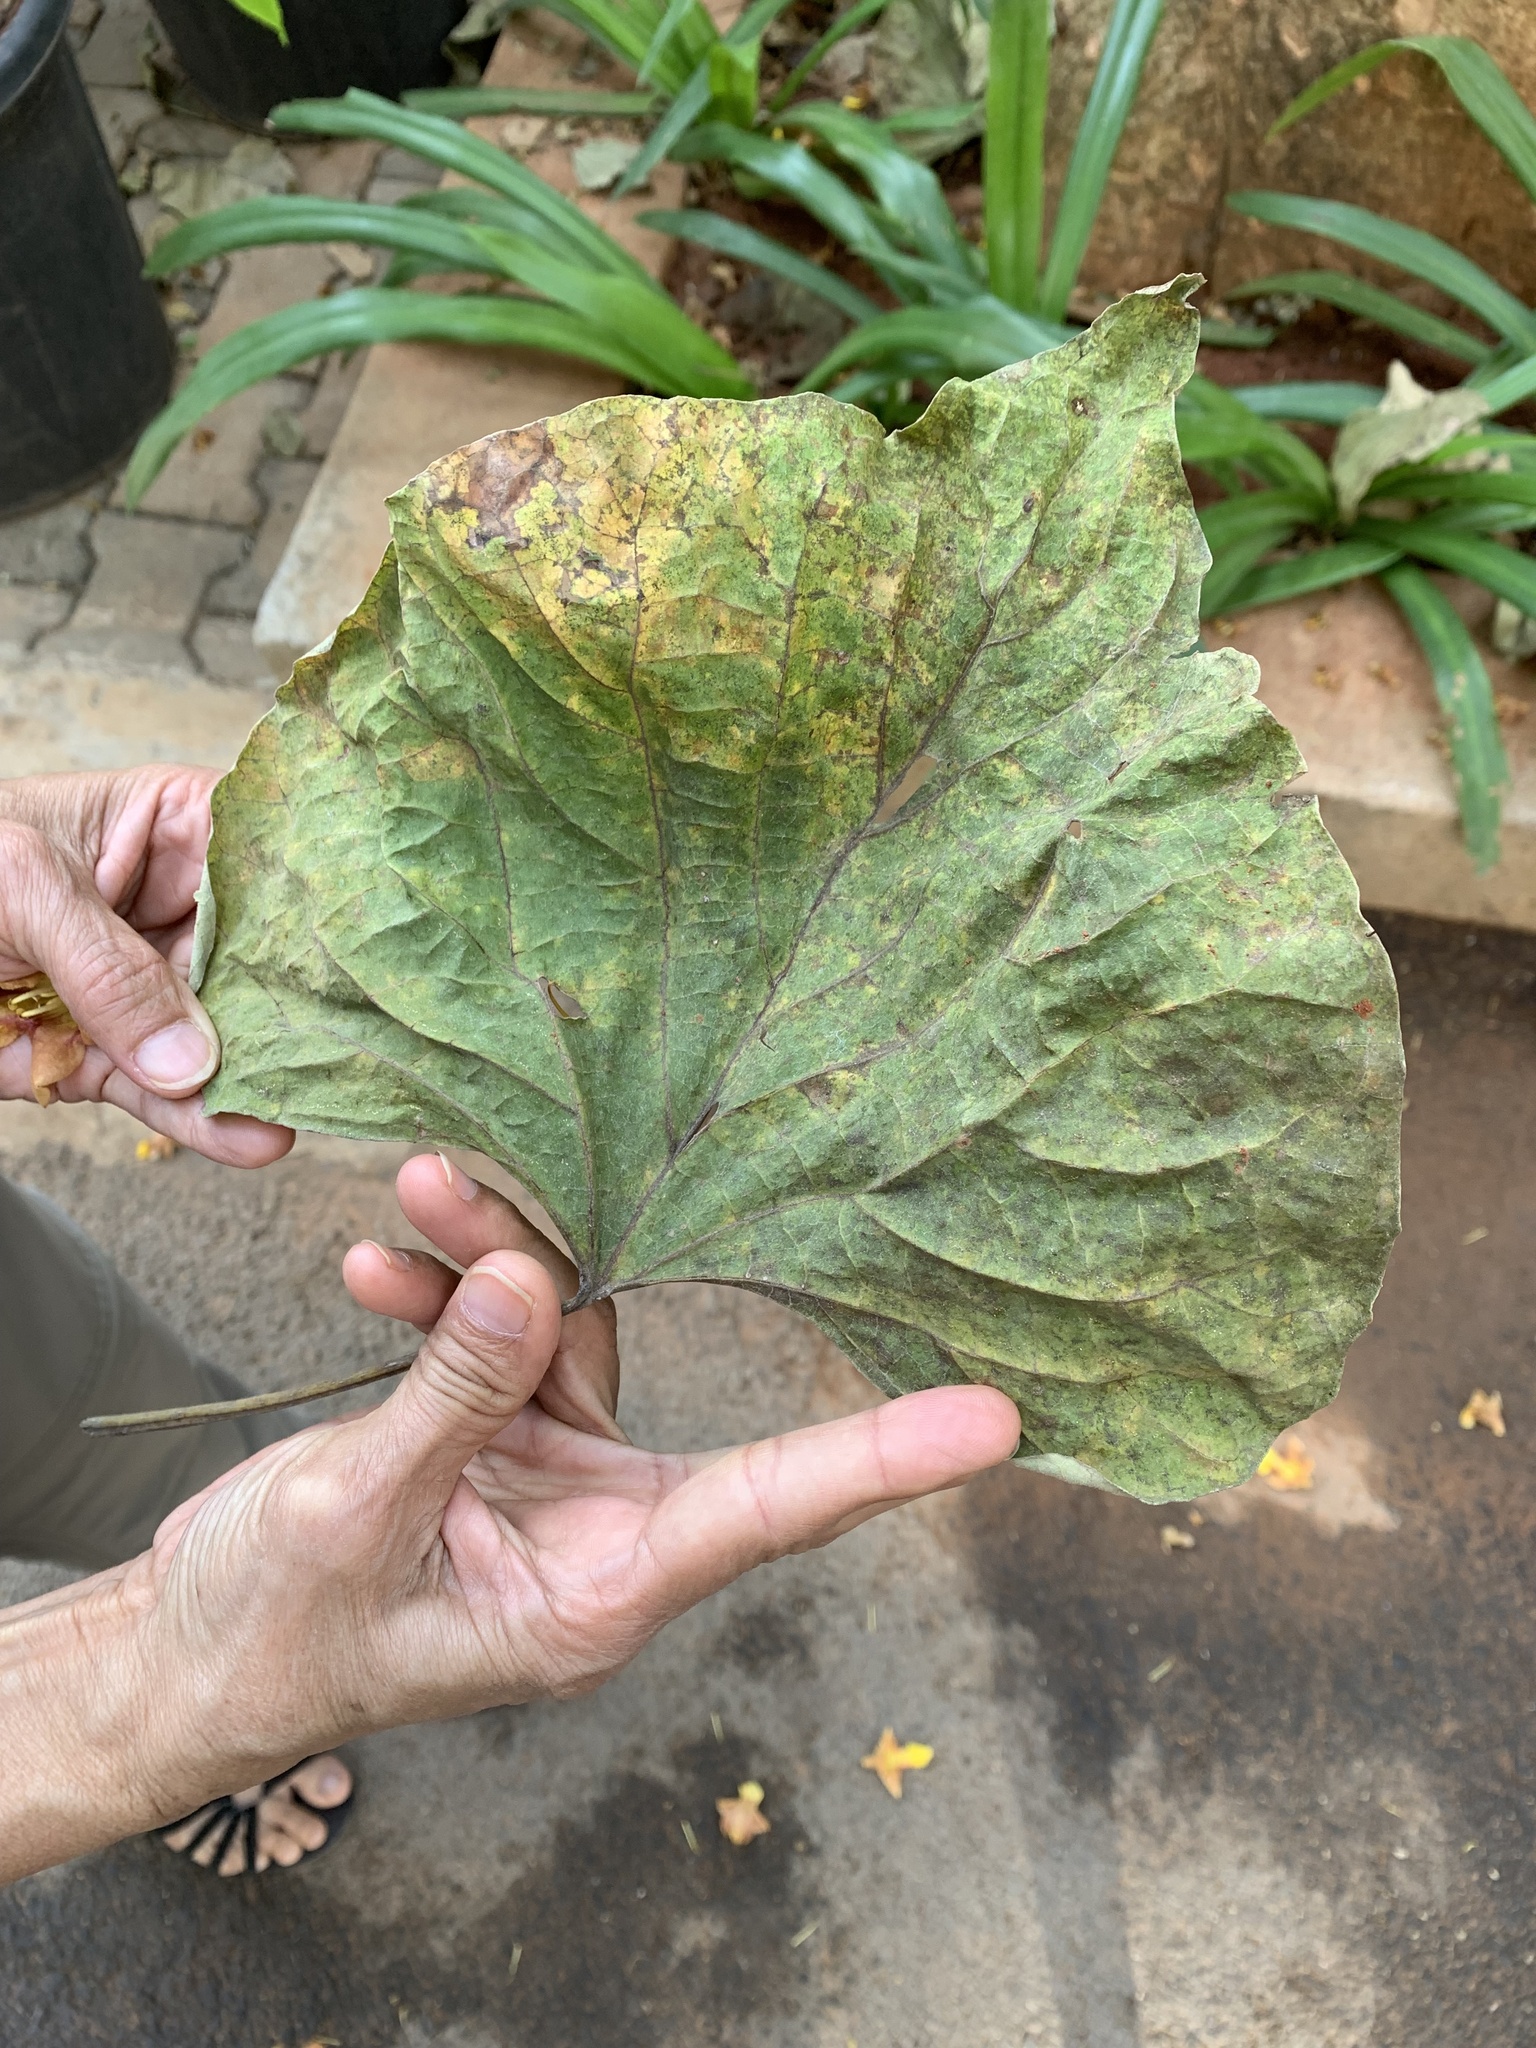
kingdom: Plantae
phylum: Tracheophyta
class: Magnoliopsida
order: Lamiales
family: Lamiaceae
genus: Gmelina
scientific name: Gmelina arborea
